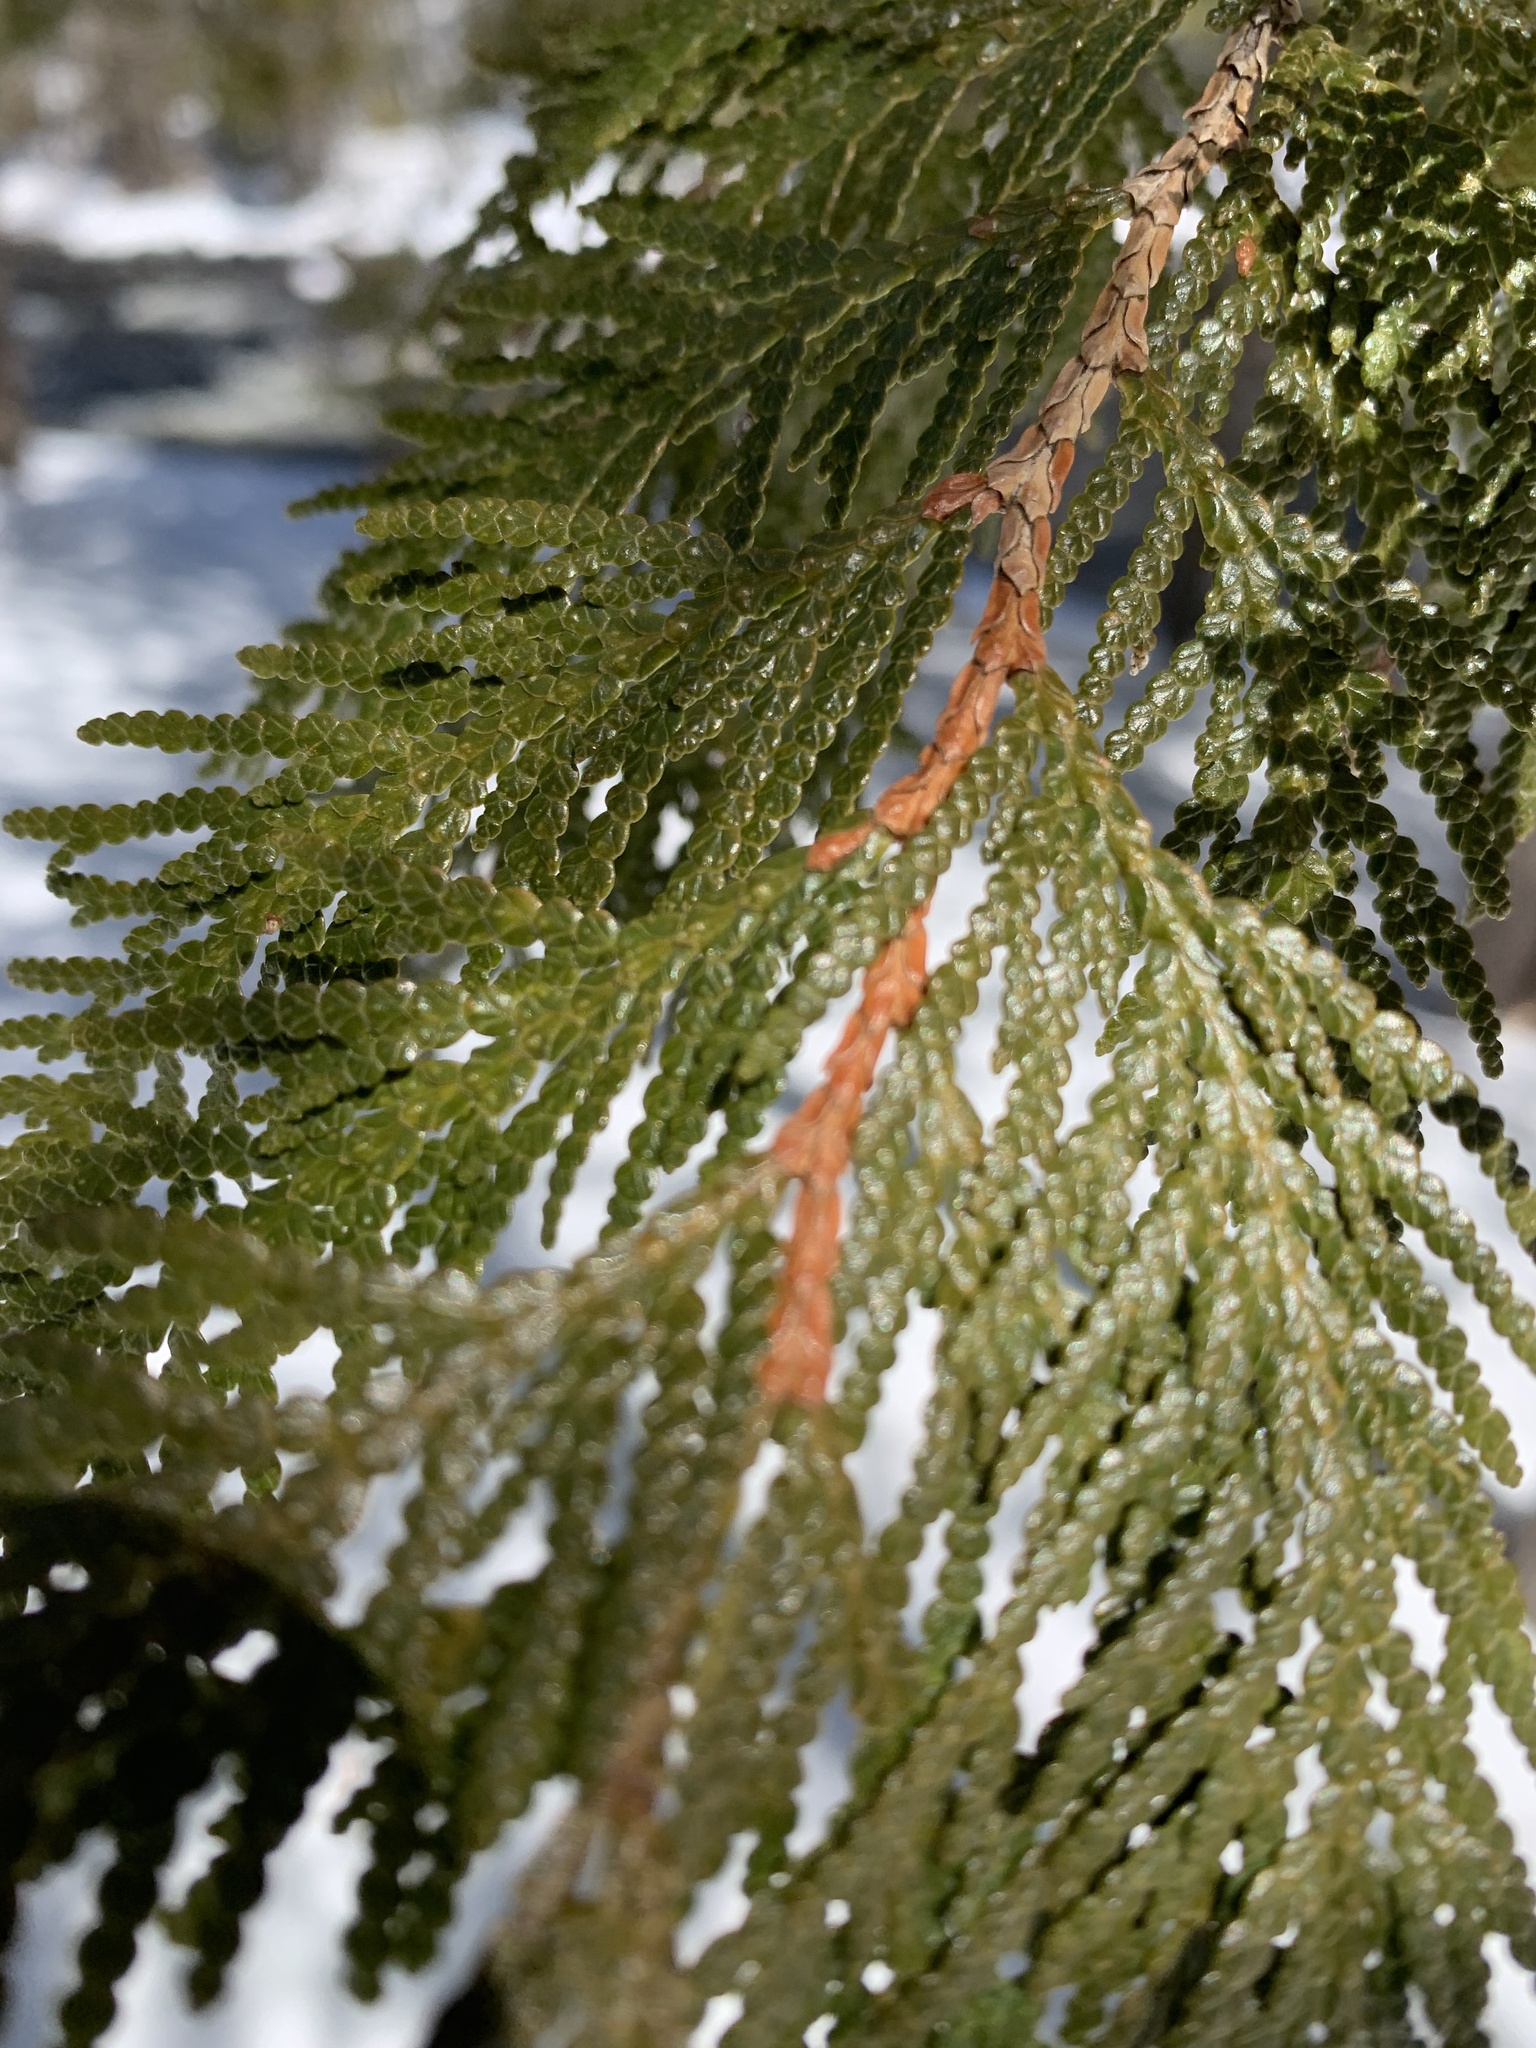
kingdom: Plantae
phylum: Tracheophyta
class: Pinopsida
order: Pinales
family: Cupressaceae
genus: Thuja
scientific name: Thuja occidentalis
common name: Northern white-cedar
